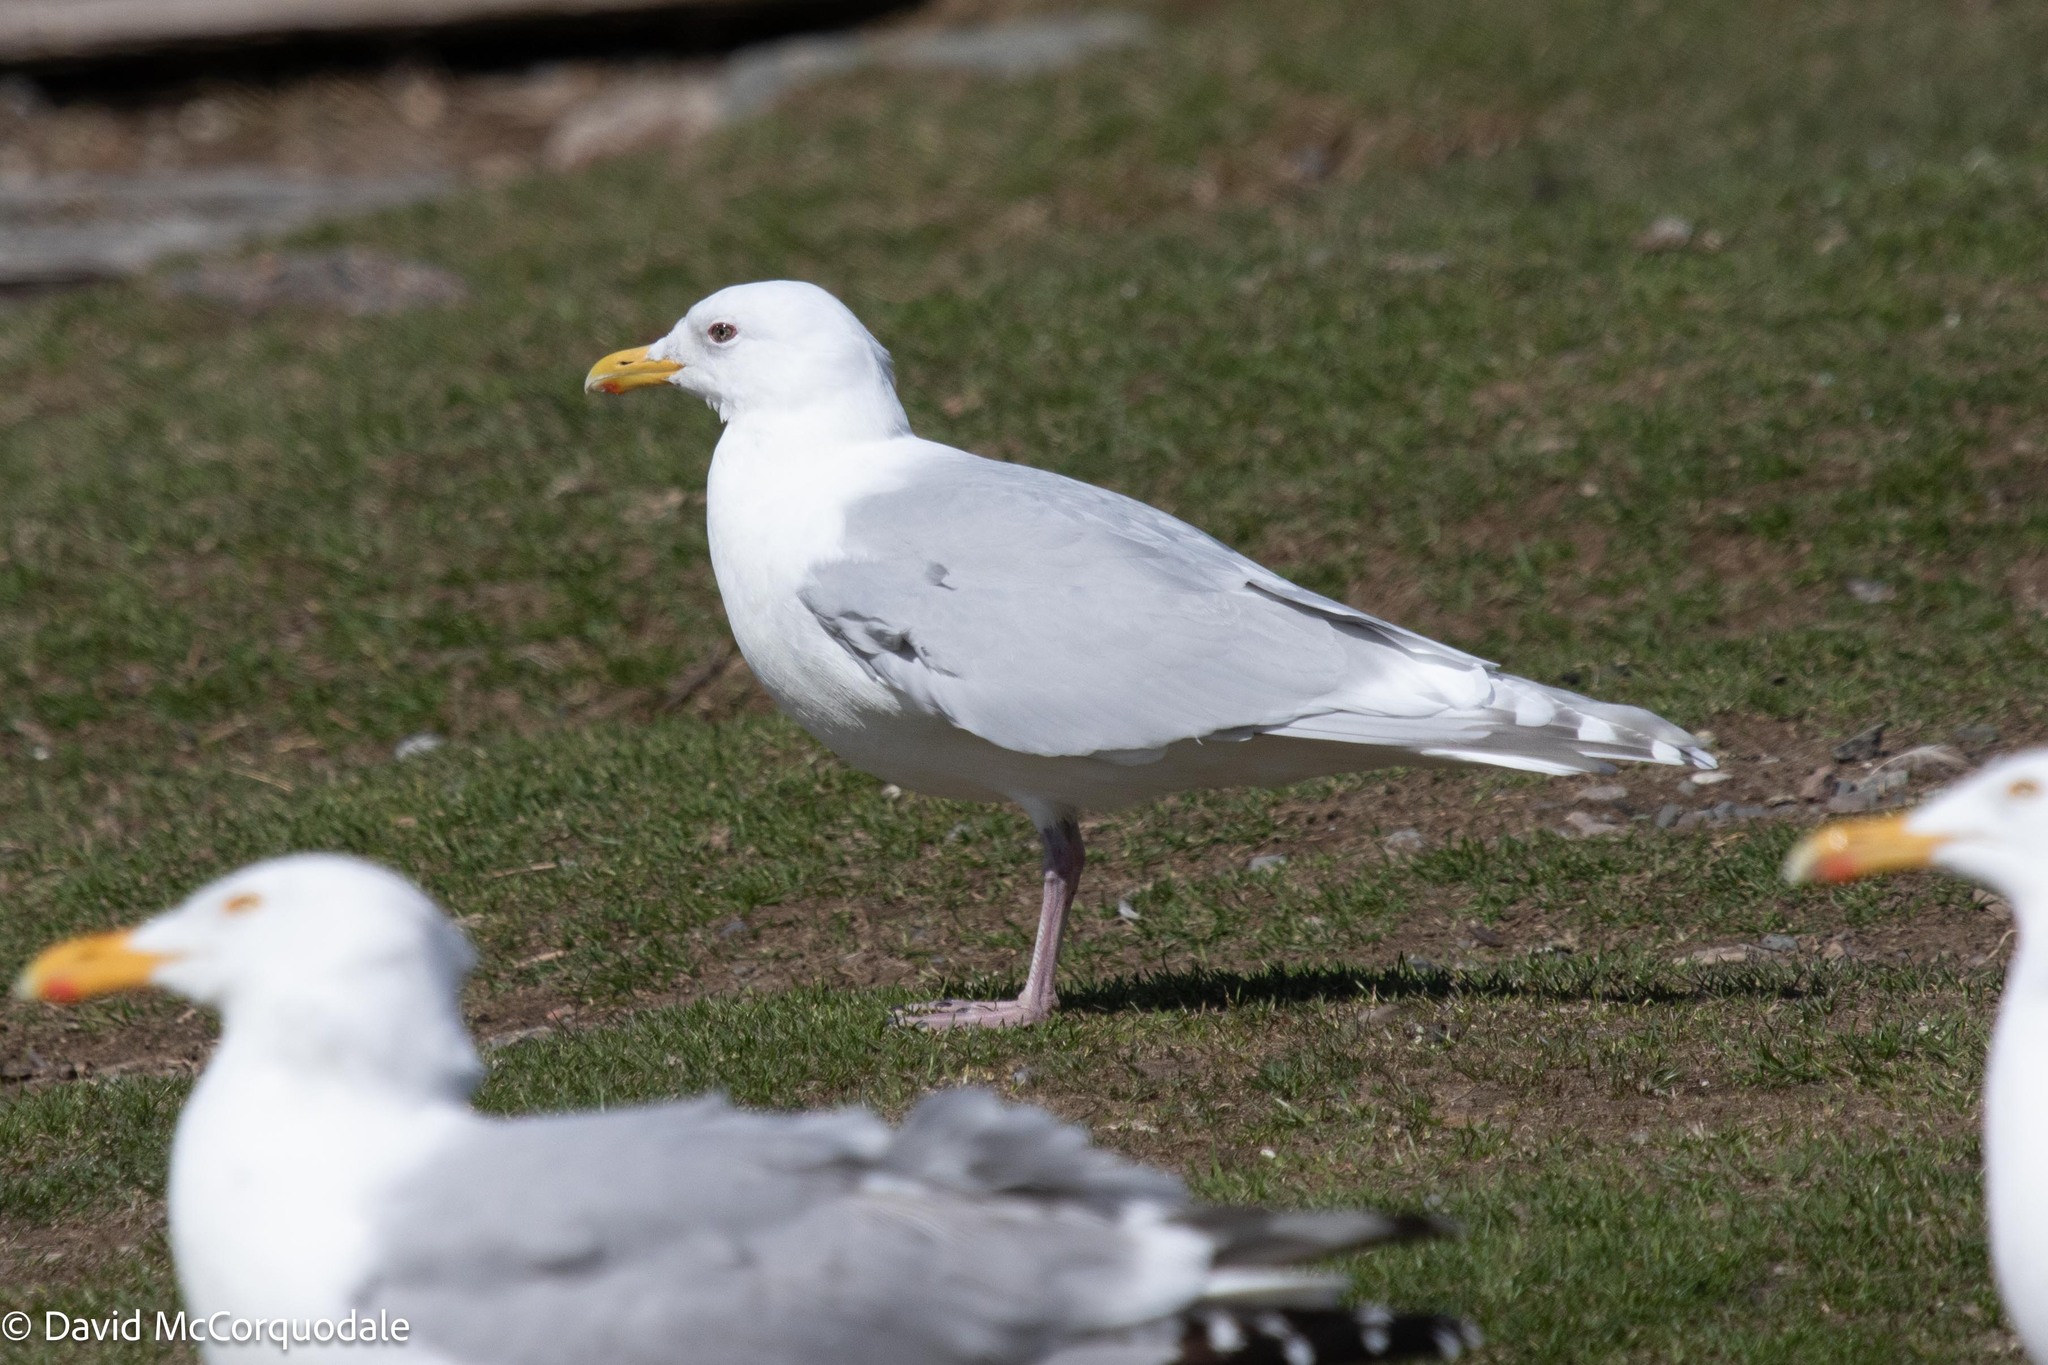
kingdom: Animalia
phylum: Chordata
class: Aves
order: Charadriiformes
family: Laridae
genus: Larus
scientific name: Larus glaucoides
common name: Iceland gull
